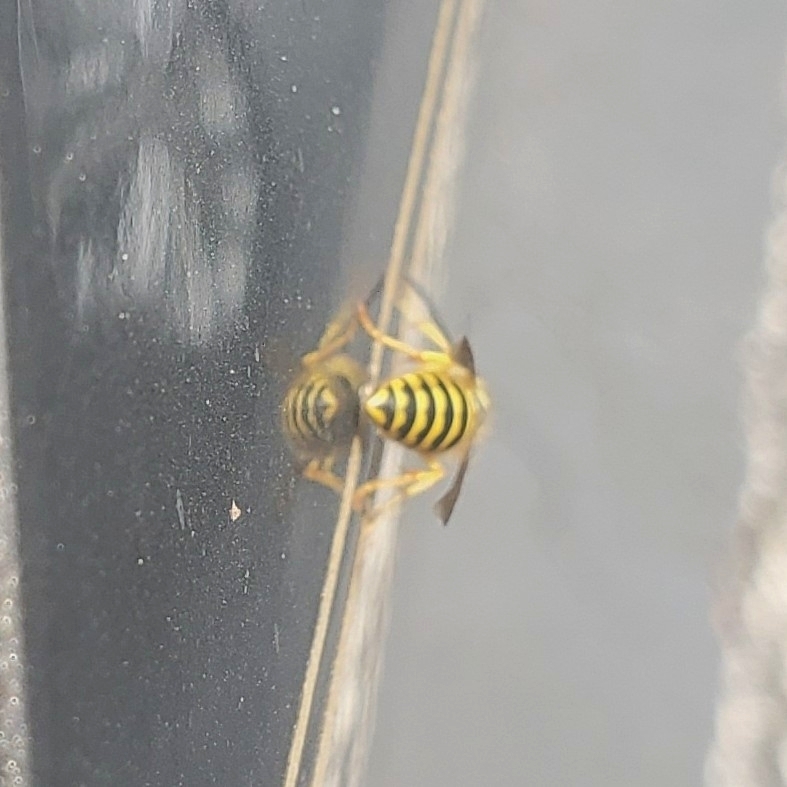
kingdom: Animalia
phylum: Arthropoda
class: Insecta
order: Hymenoptera
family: Vespidae
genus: Vespula
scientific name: Vespula maculifrons
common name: Eastern yellowjacket
